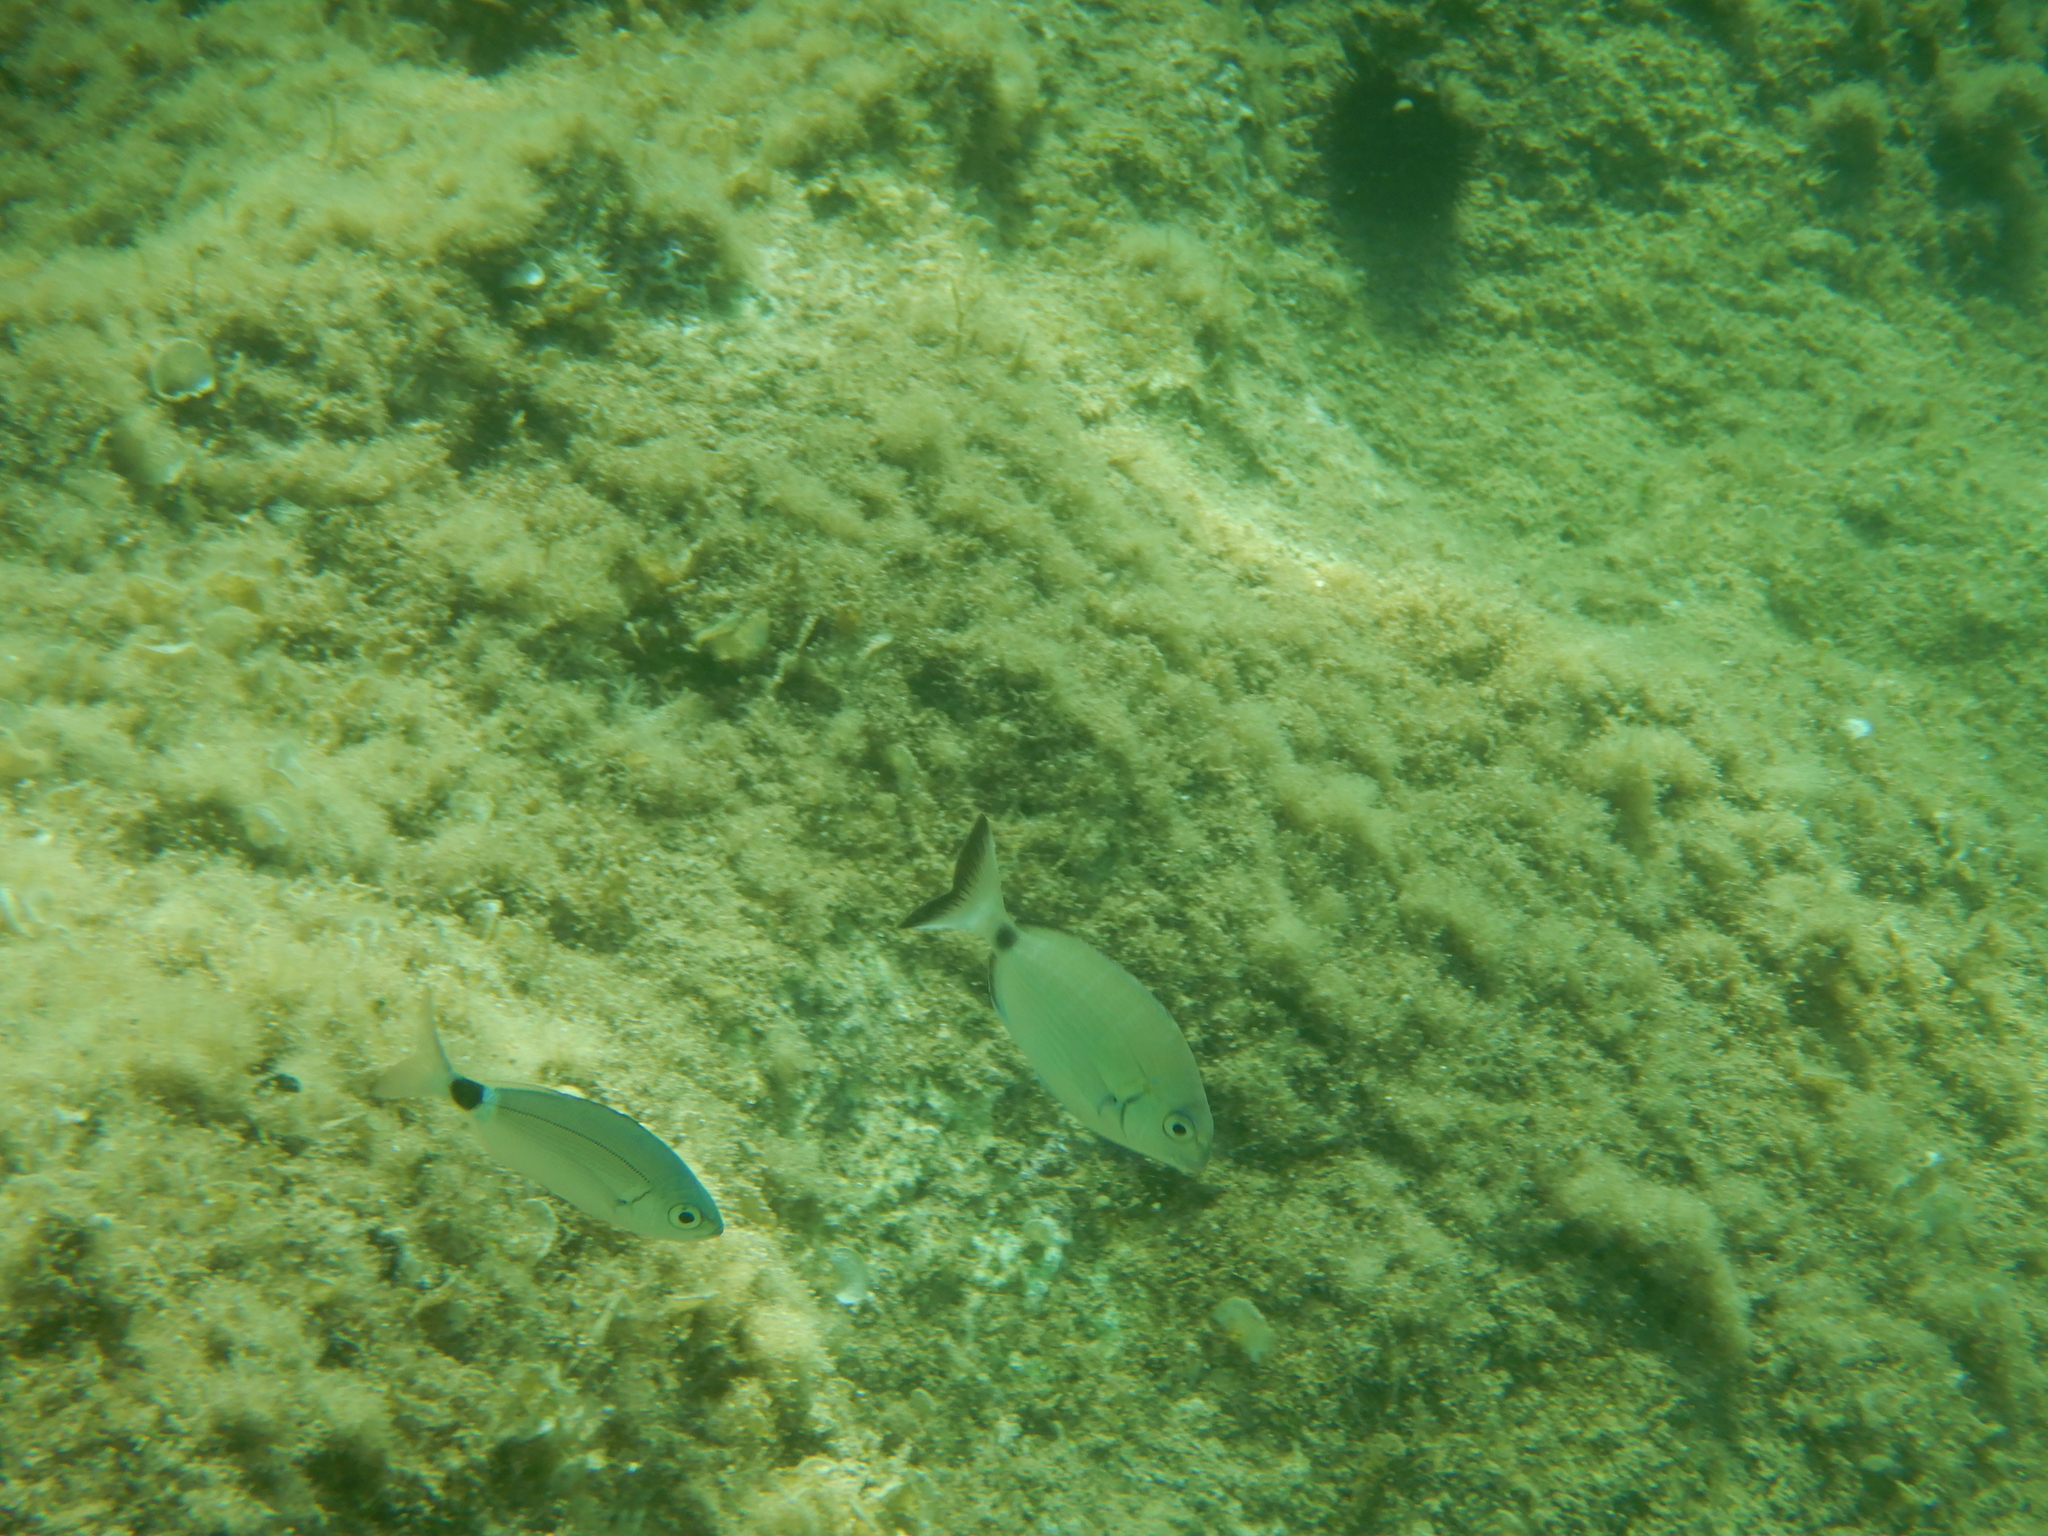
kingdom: Animalia
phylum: Chordata
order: Perciformes
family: Sparidae
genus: Oblada
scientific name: Oblada melanura
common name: Saddled seabream
